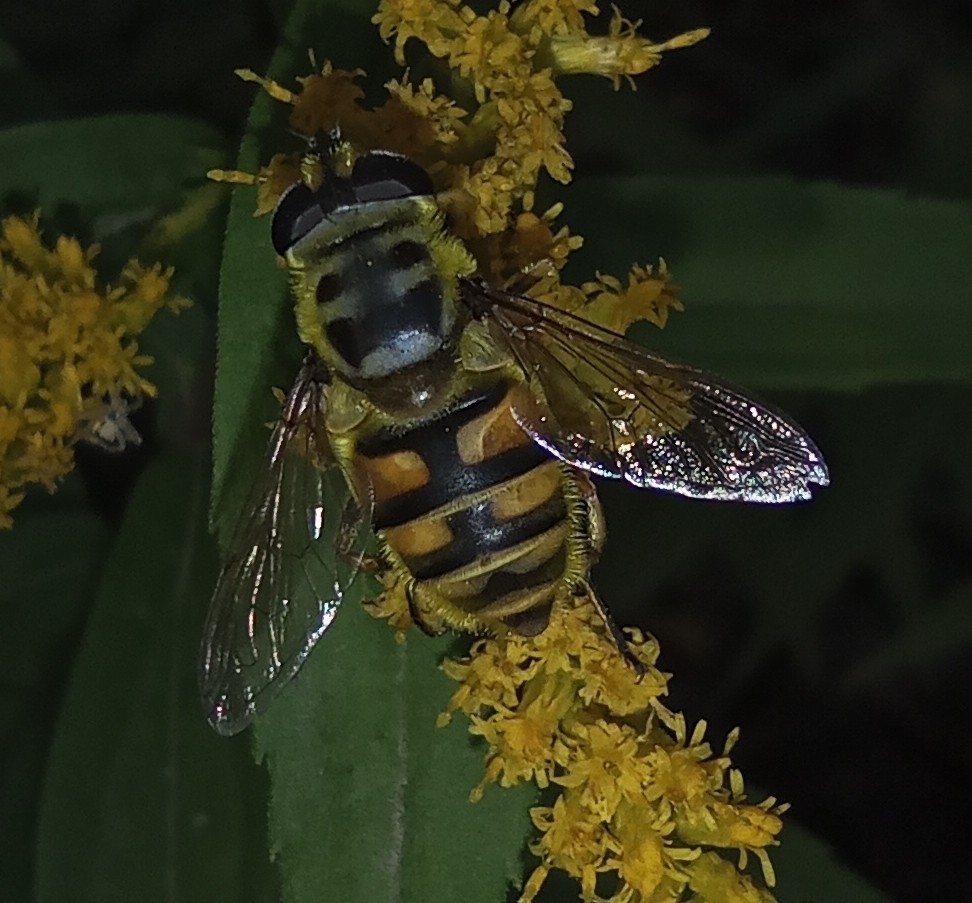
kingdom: Animalia
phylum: Arthropoda
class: Insecta
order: Diptera
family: Syrphidae
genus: Myathropa
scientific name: Myathropa florea
